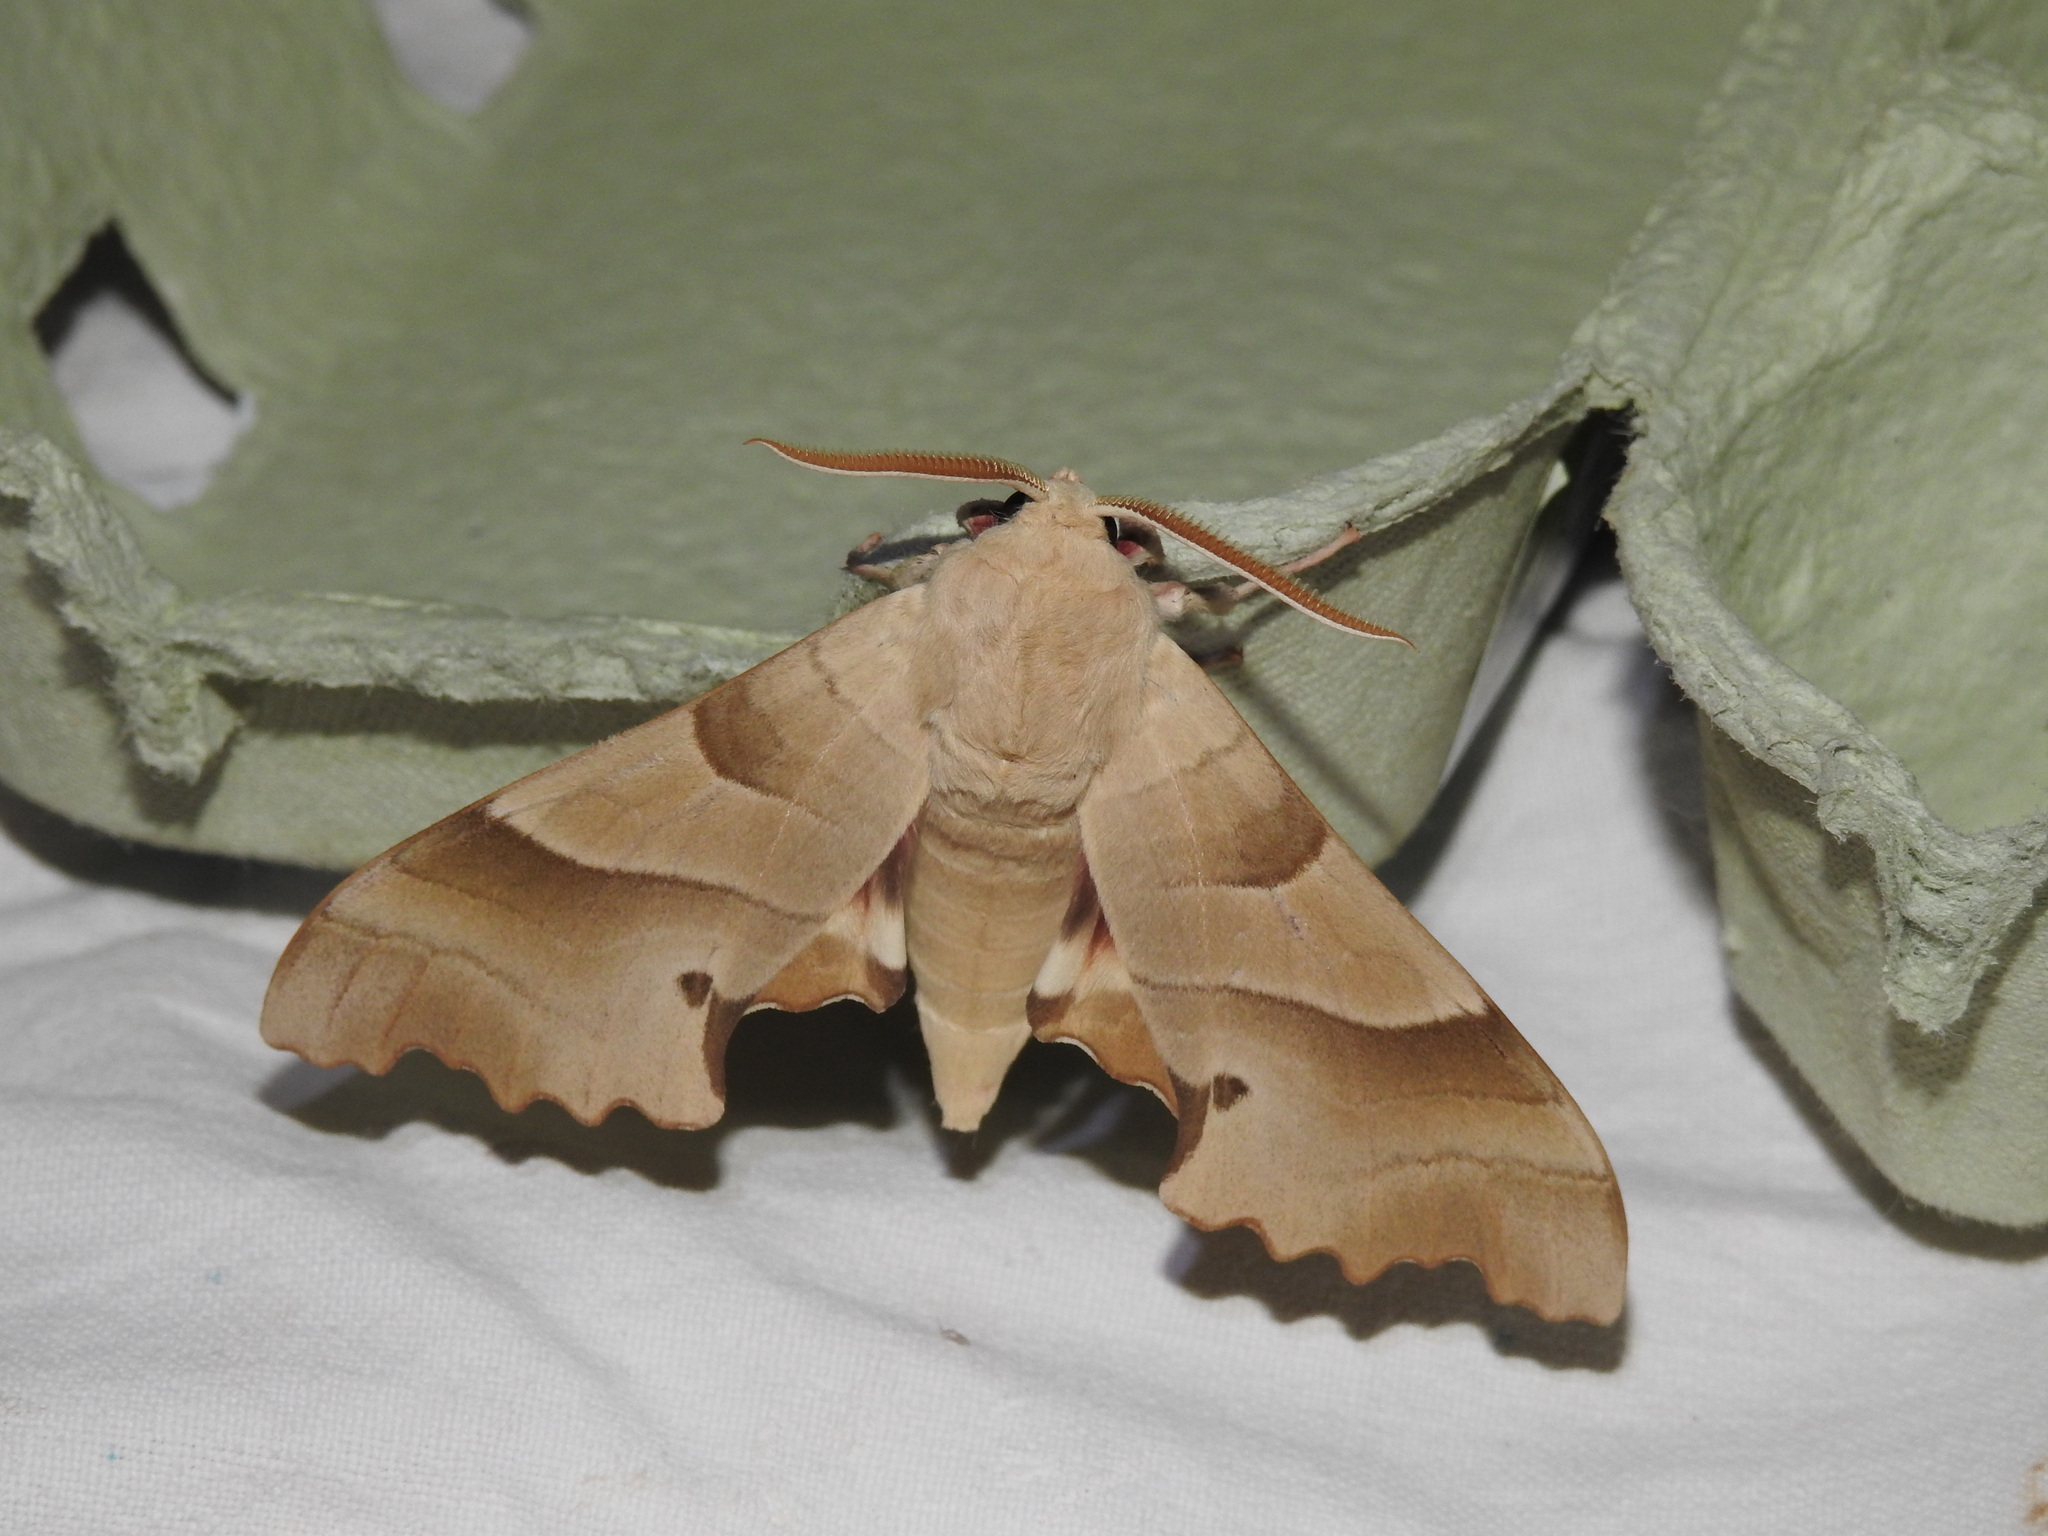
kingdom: Animalia
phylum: Arthropoda
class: Insecta
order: Lepidoptera
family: Sphingidae
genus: Marumba
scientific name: Marumba quercus
